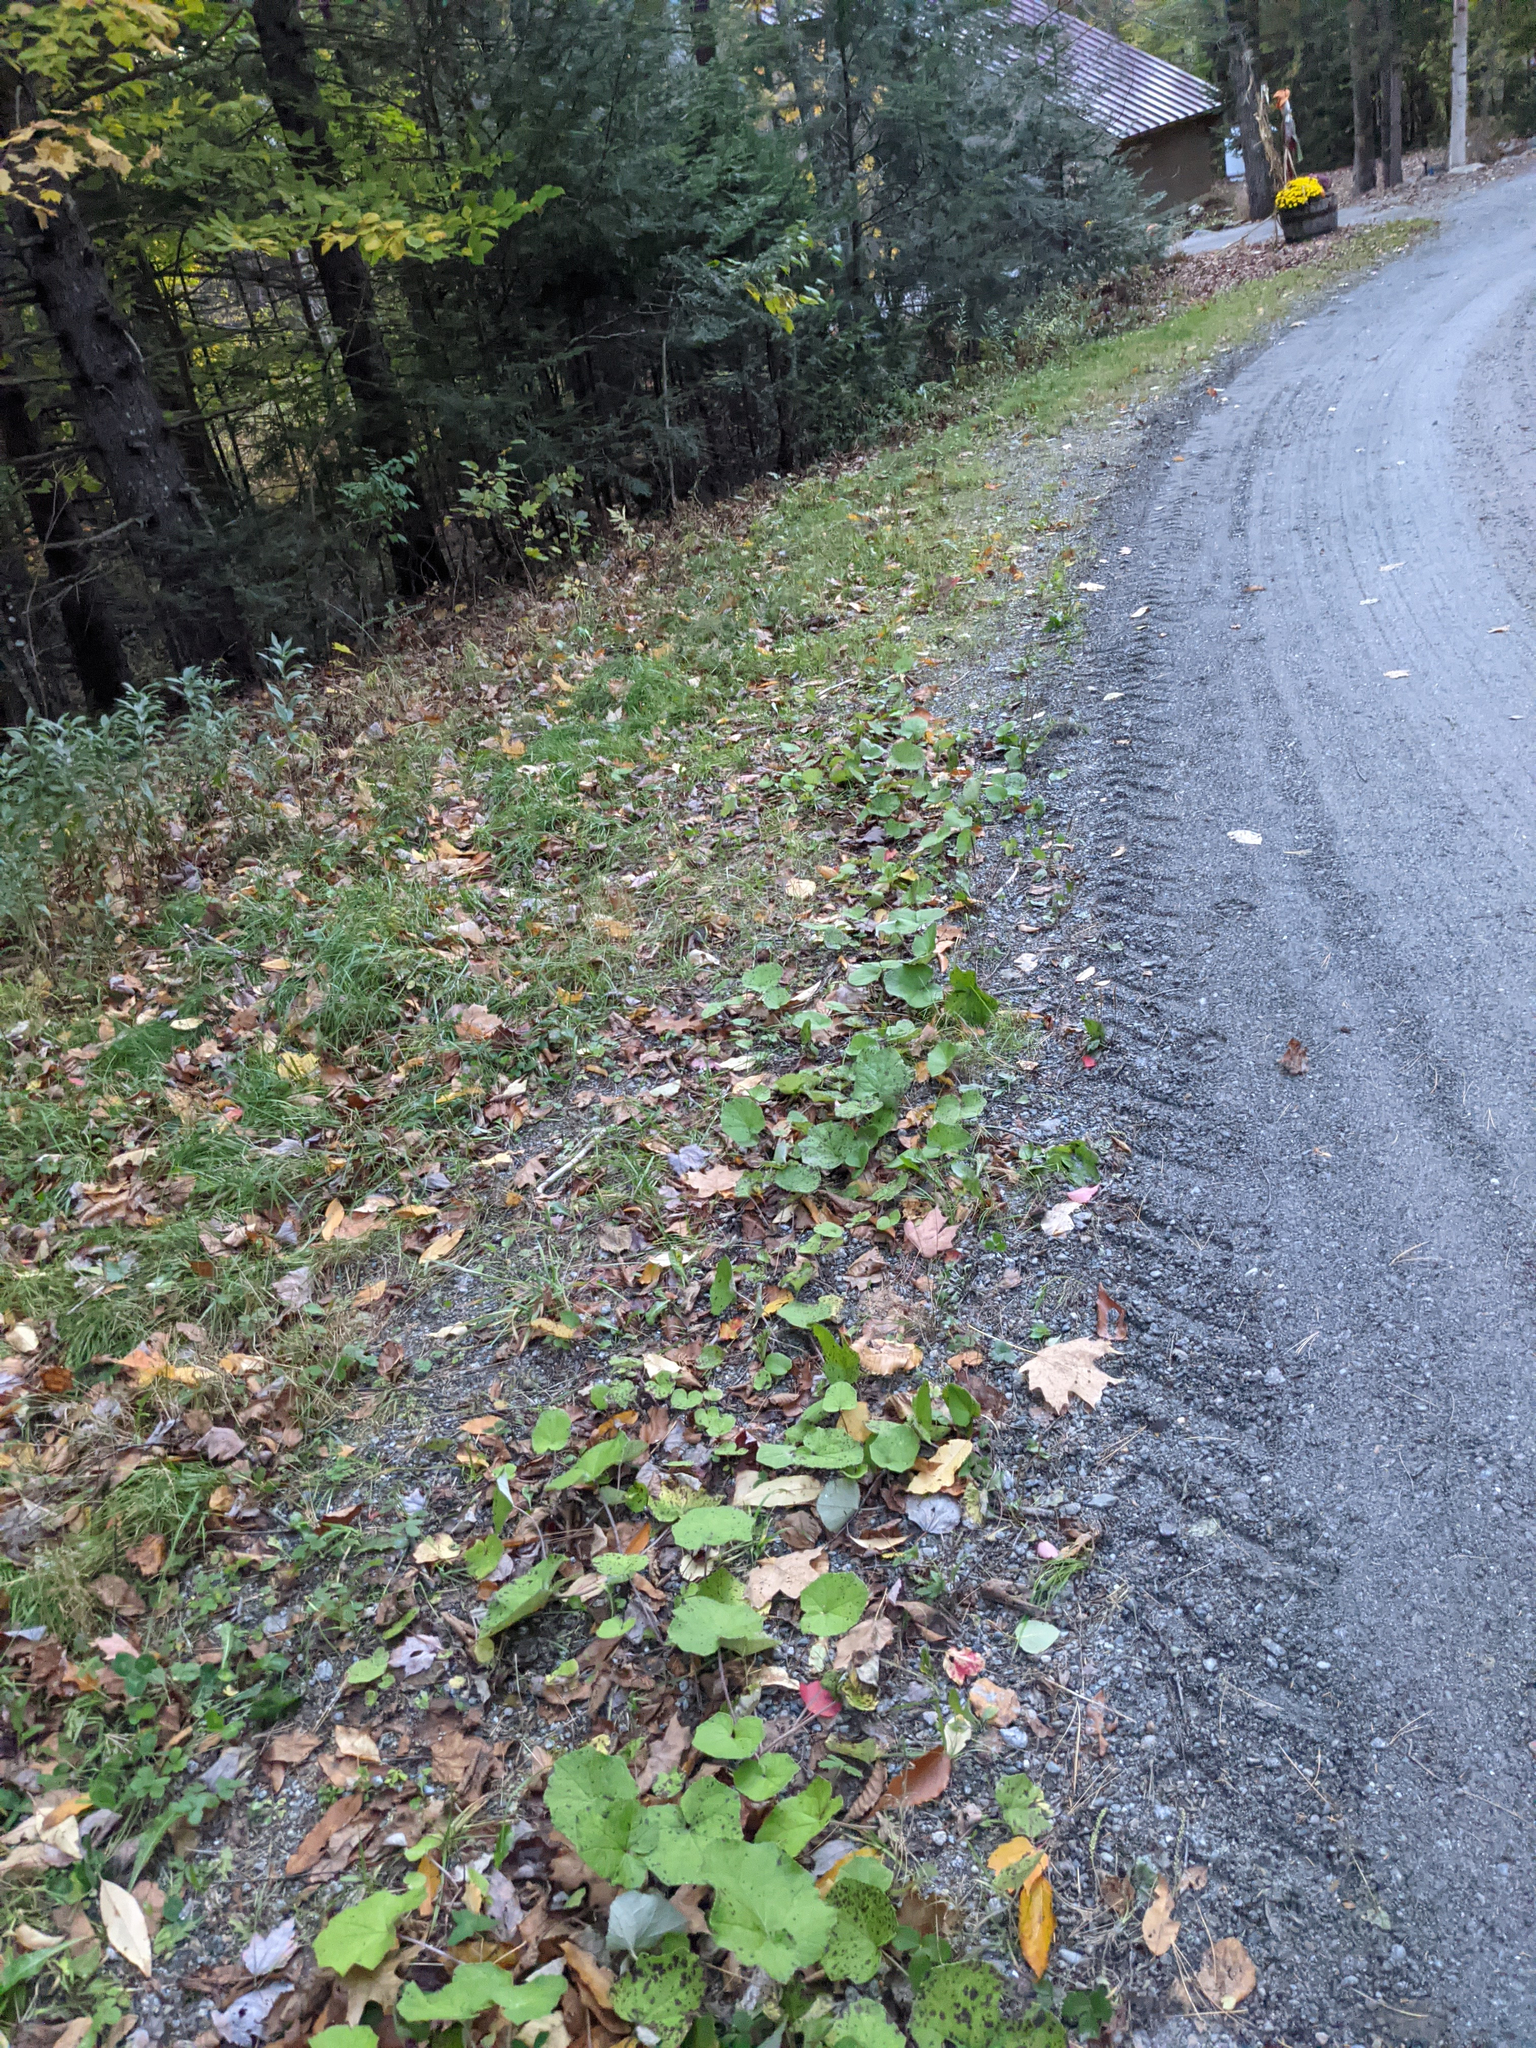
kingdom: Plantae
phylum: Tracheophyta
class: Magnoliopsida
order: Asterales
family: Asteraceae
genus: Tussilago
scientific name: Tussilago farfara
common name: Coltsfoot
